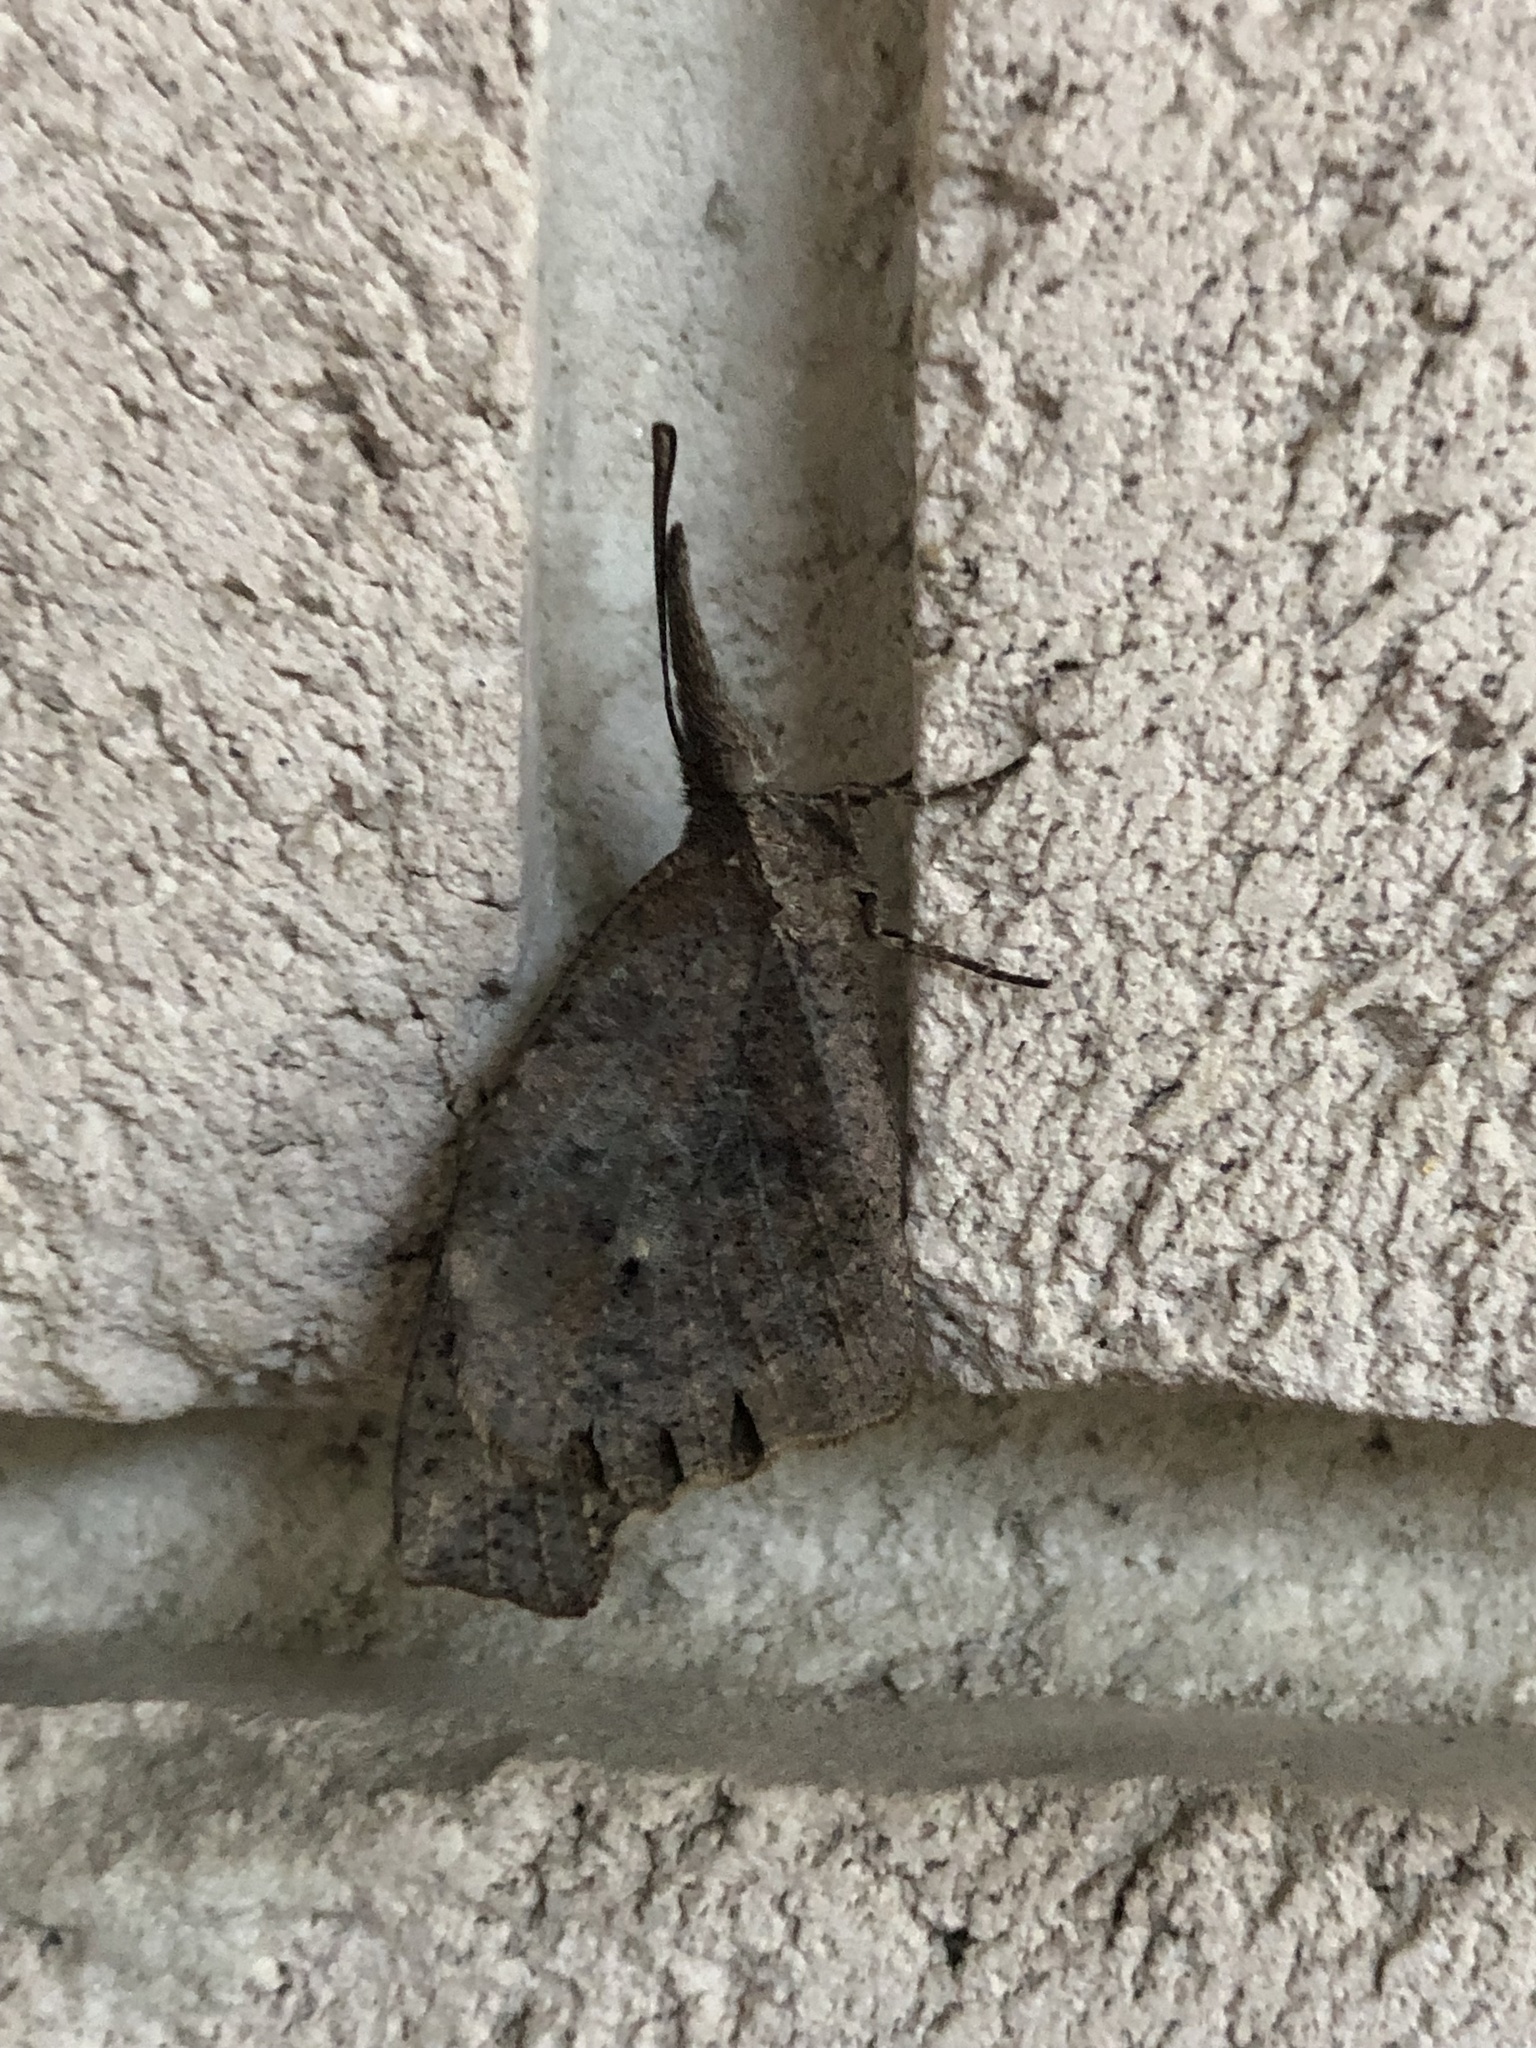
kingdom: Animalia
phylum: Arthropoda
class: Insecta
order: Lepidoptera
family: Nymphalidae
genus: Libytheana
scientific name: Libytheana carinenta
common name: American snout
